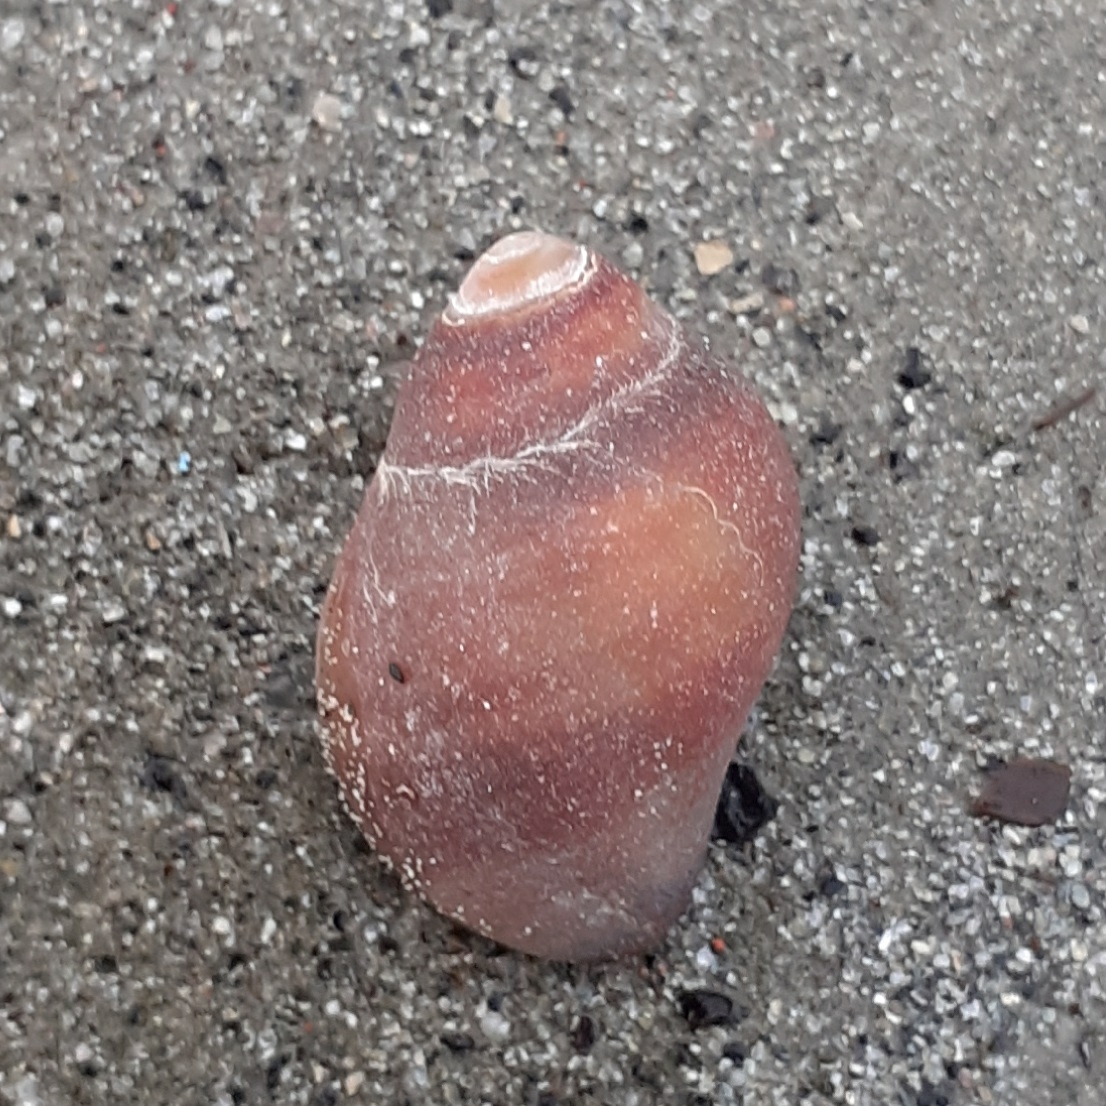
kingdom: Animalia
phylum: Mollusca
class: Gastropoda
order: Neogastropoda
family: Muricidae
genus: Nucella
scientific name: Nucella lapillus
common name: Dog whelk
